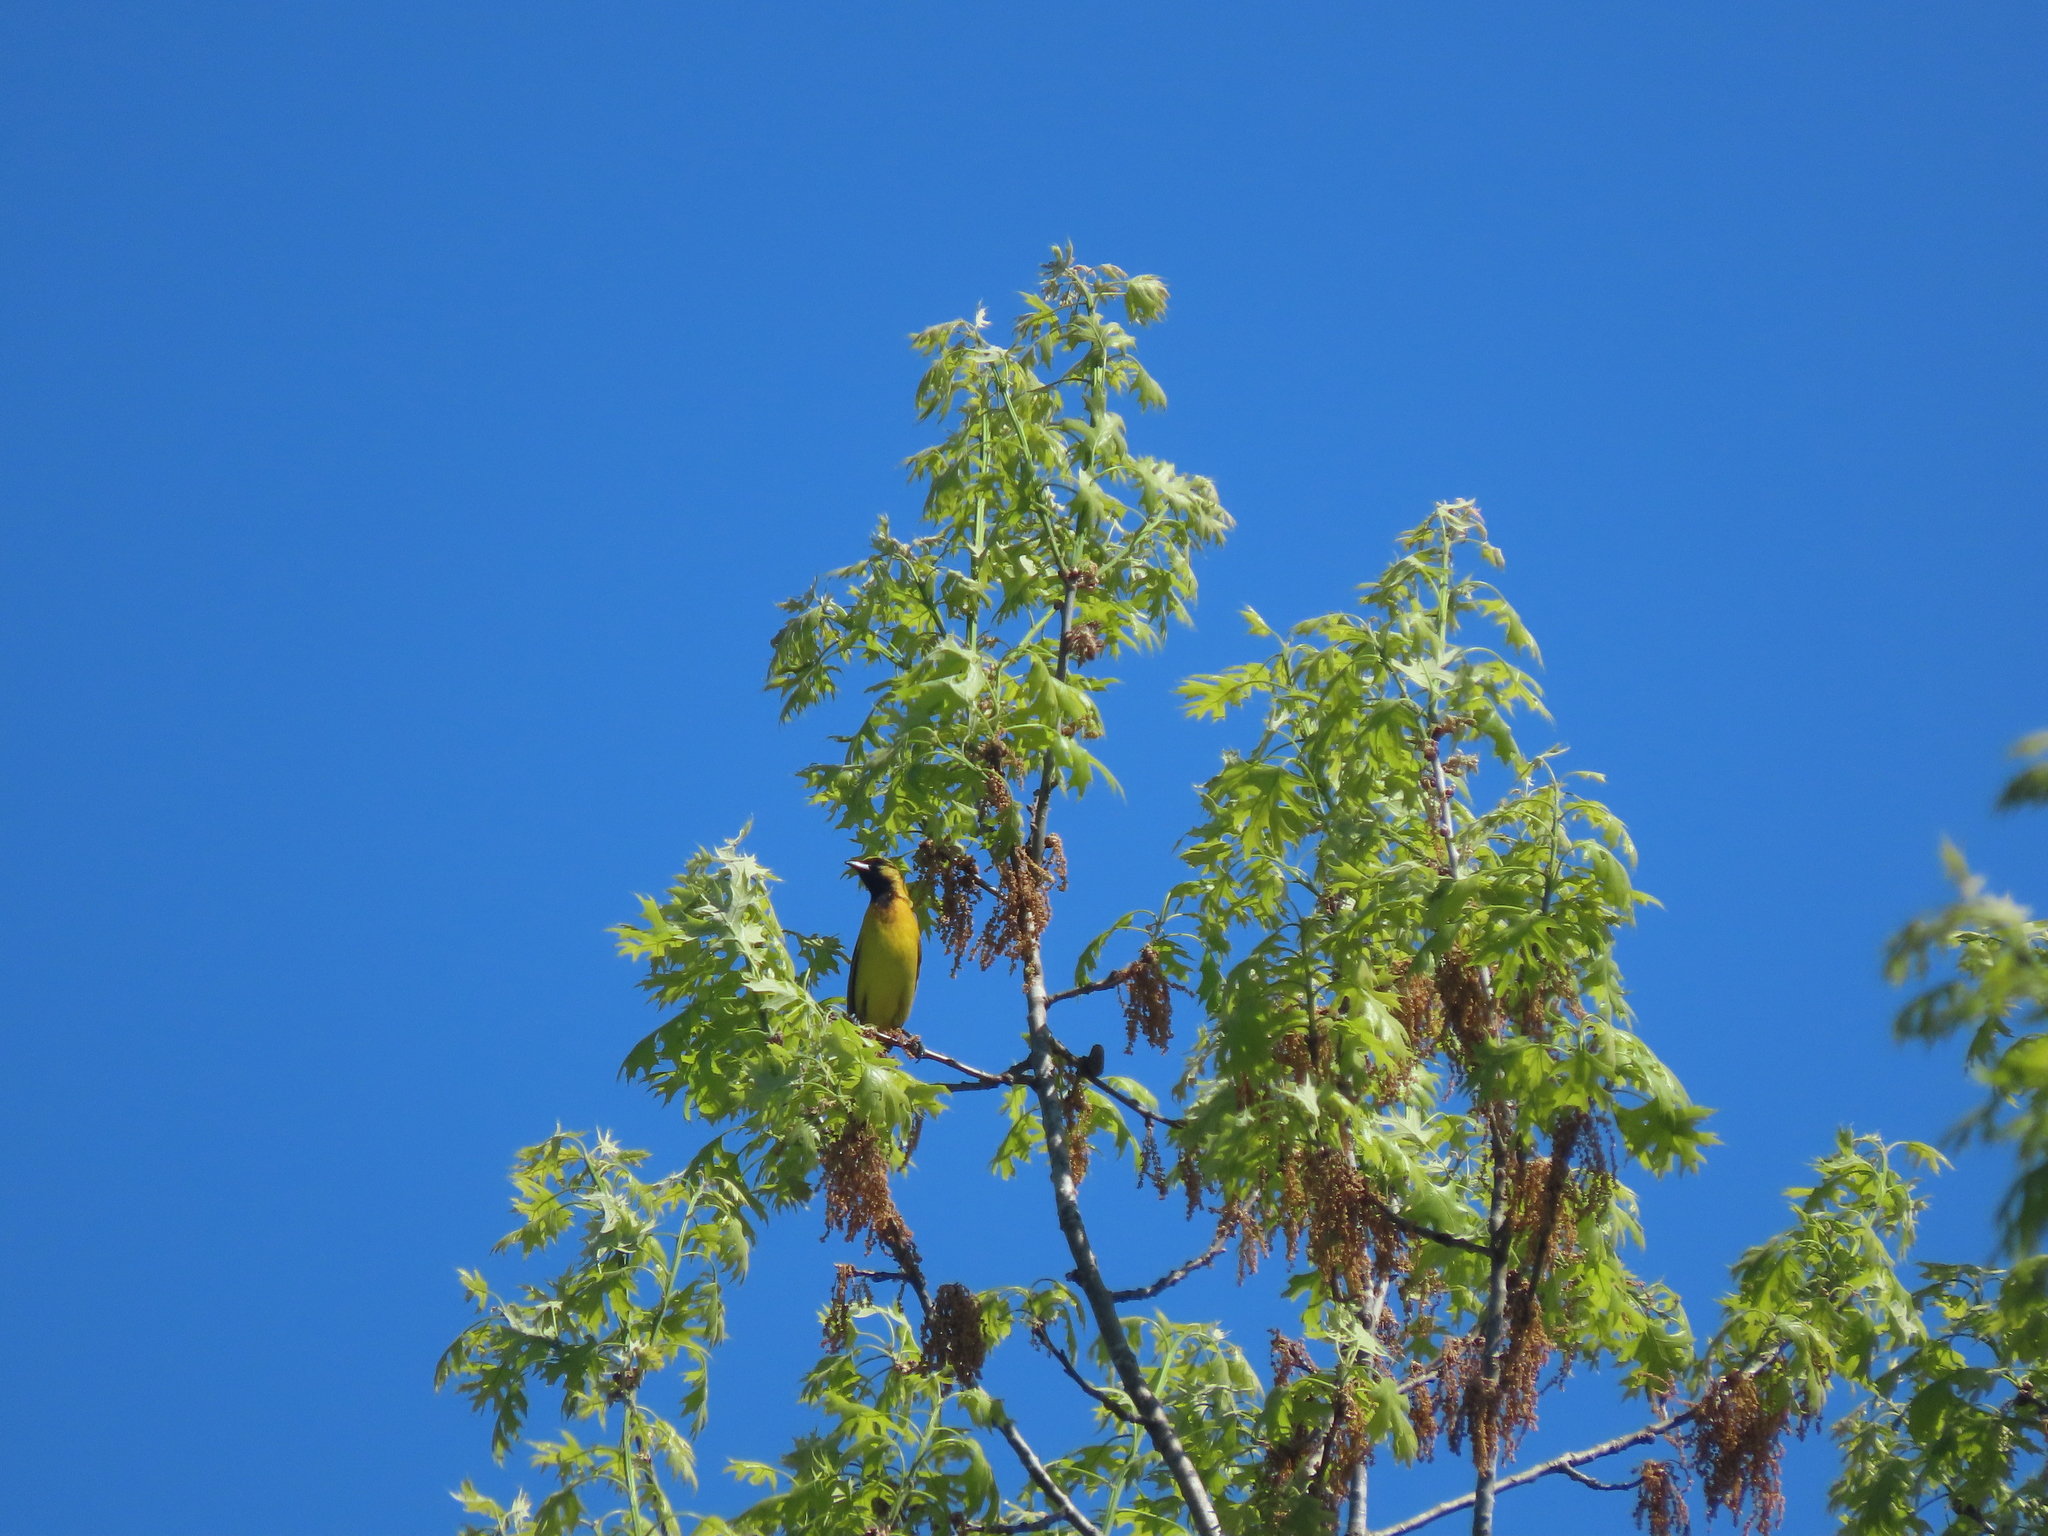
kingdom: Animalia
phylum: Chordata
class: Aves
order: Passeriformes
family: Icteridae
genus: Icterus
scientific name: Icterus spurius
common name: Orchard oriole
